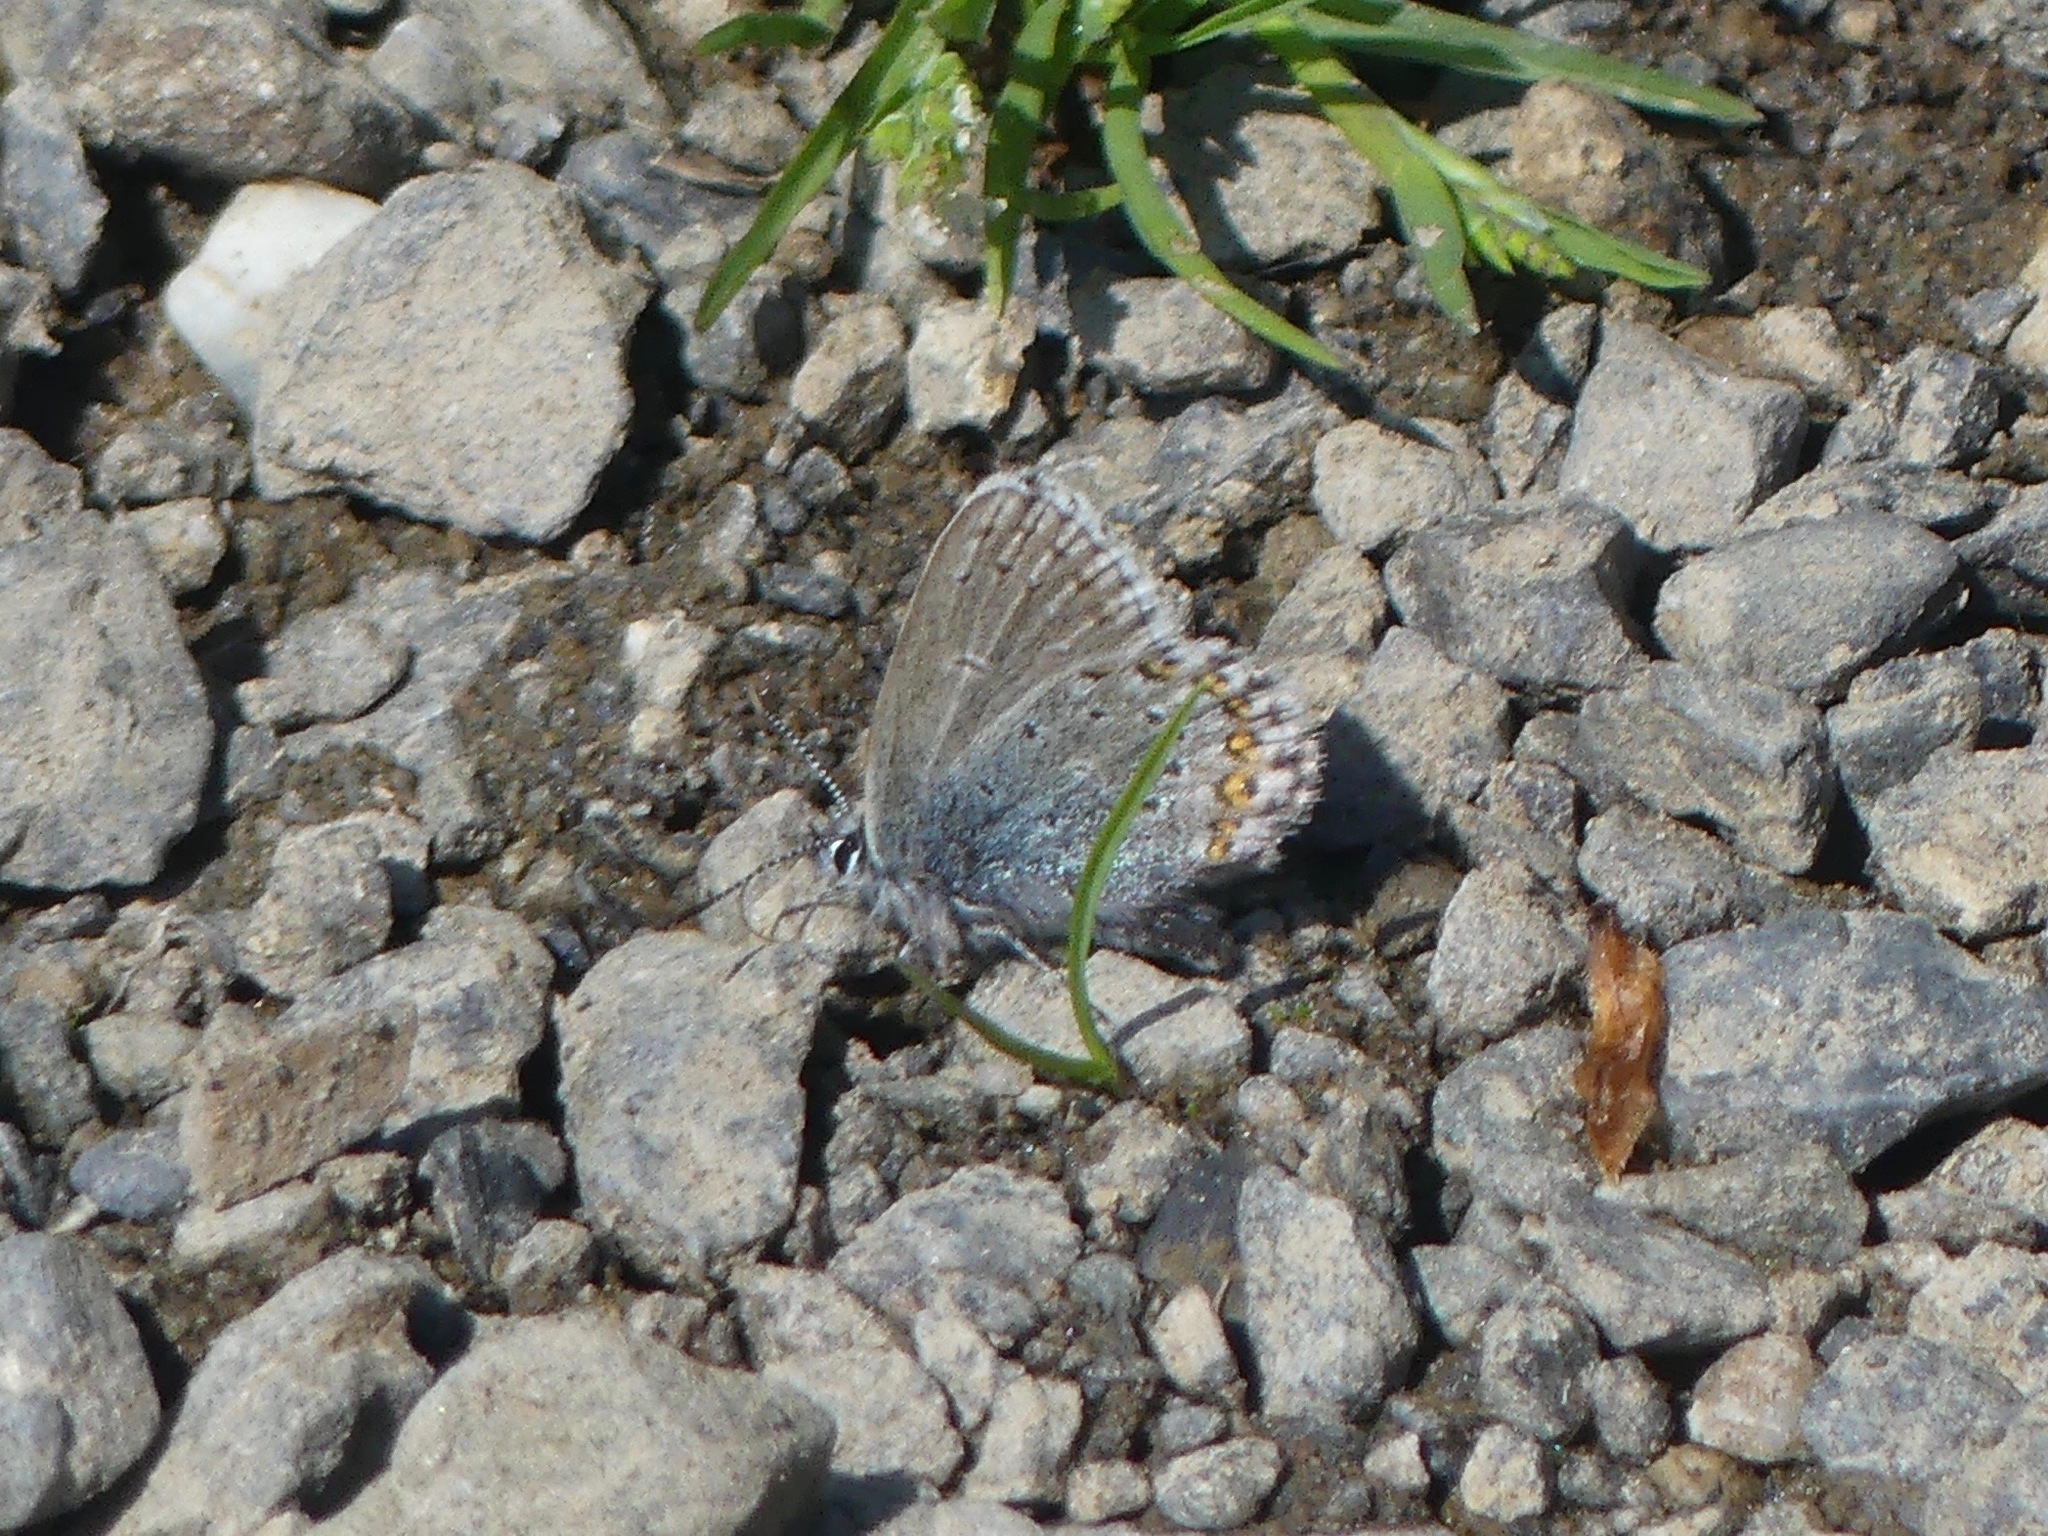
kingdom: Animalia
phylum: Arthropoda
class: Insecta
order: Lepidoptera
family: Lycaenidae
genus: Lycaeides
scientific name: Lycaeides idas
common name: Northern blue
